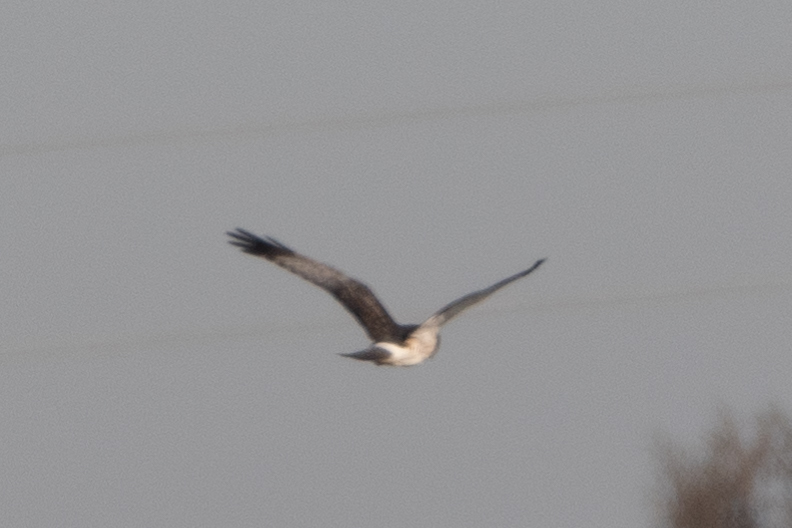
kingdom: Animalia
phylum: Chordata
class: Aves
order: Accipitriformes
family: Accipitridae
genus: Circus
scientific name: Circus cyaneus
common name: Hen harrier
